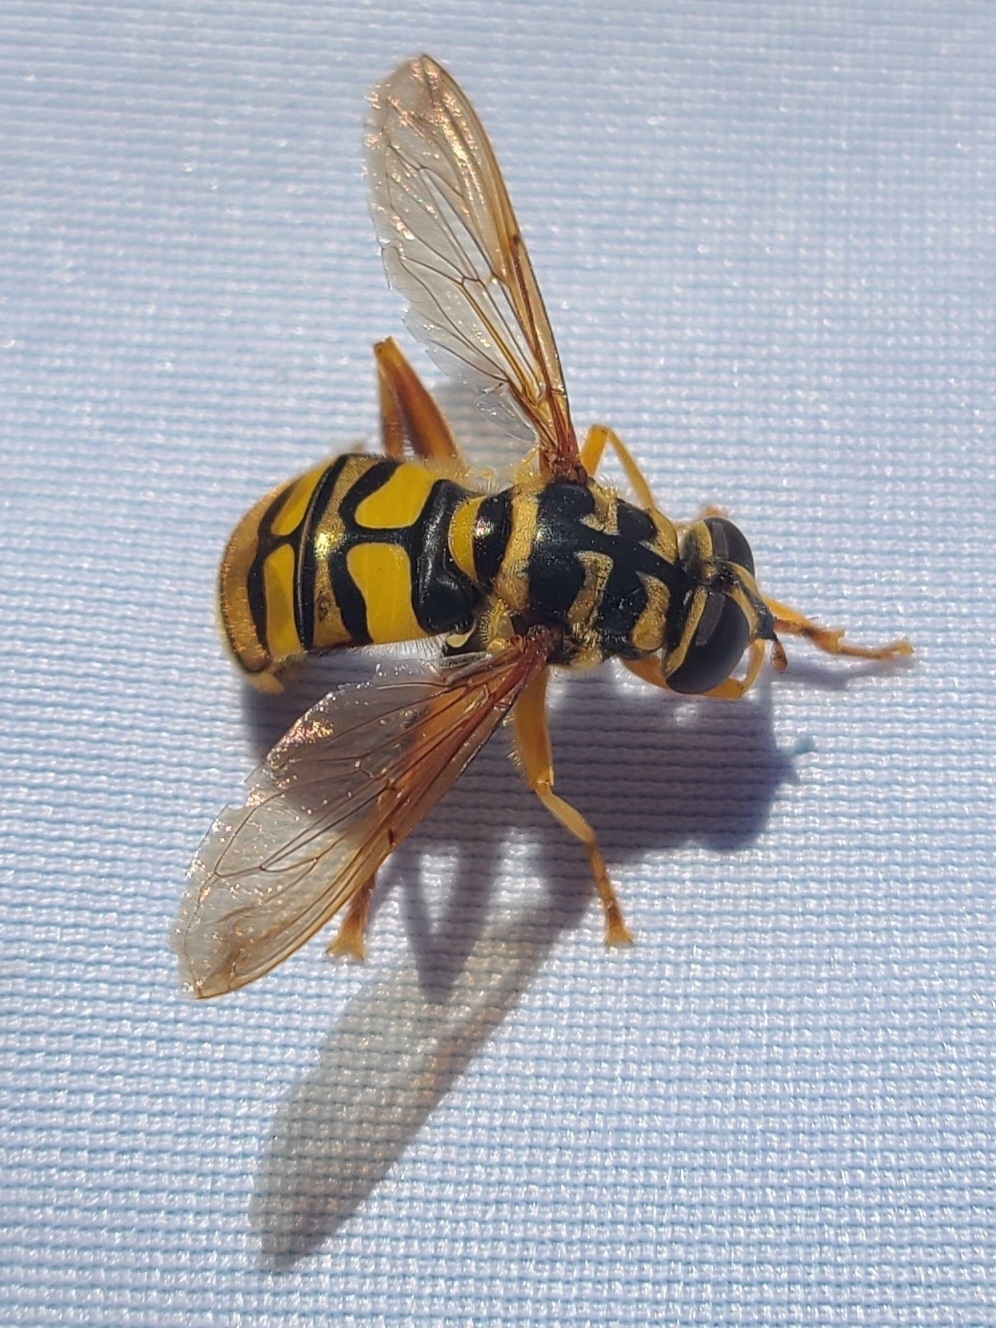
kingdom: Animalia
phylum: Arthropoda
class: Insecta
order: Diptera
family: Syrphidae
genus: Milesia
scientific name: Milesia virginiensis
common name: Virginia giant
